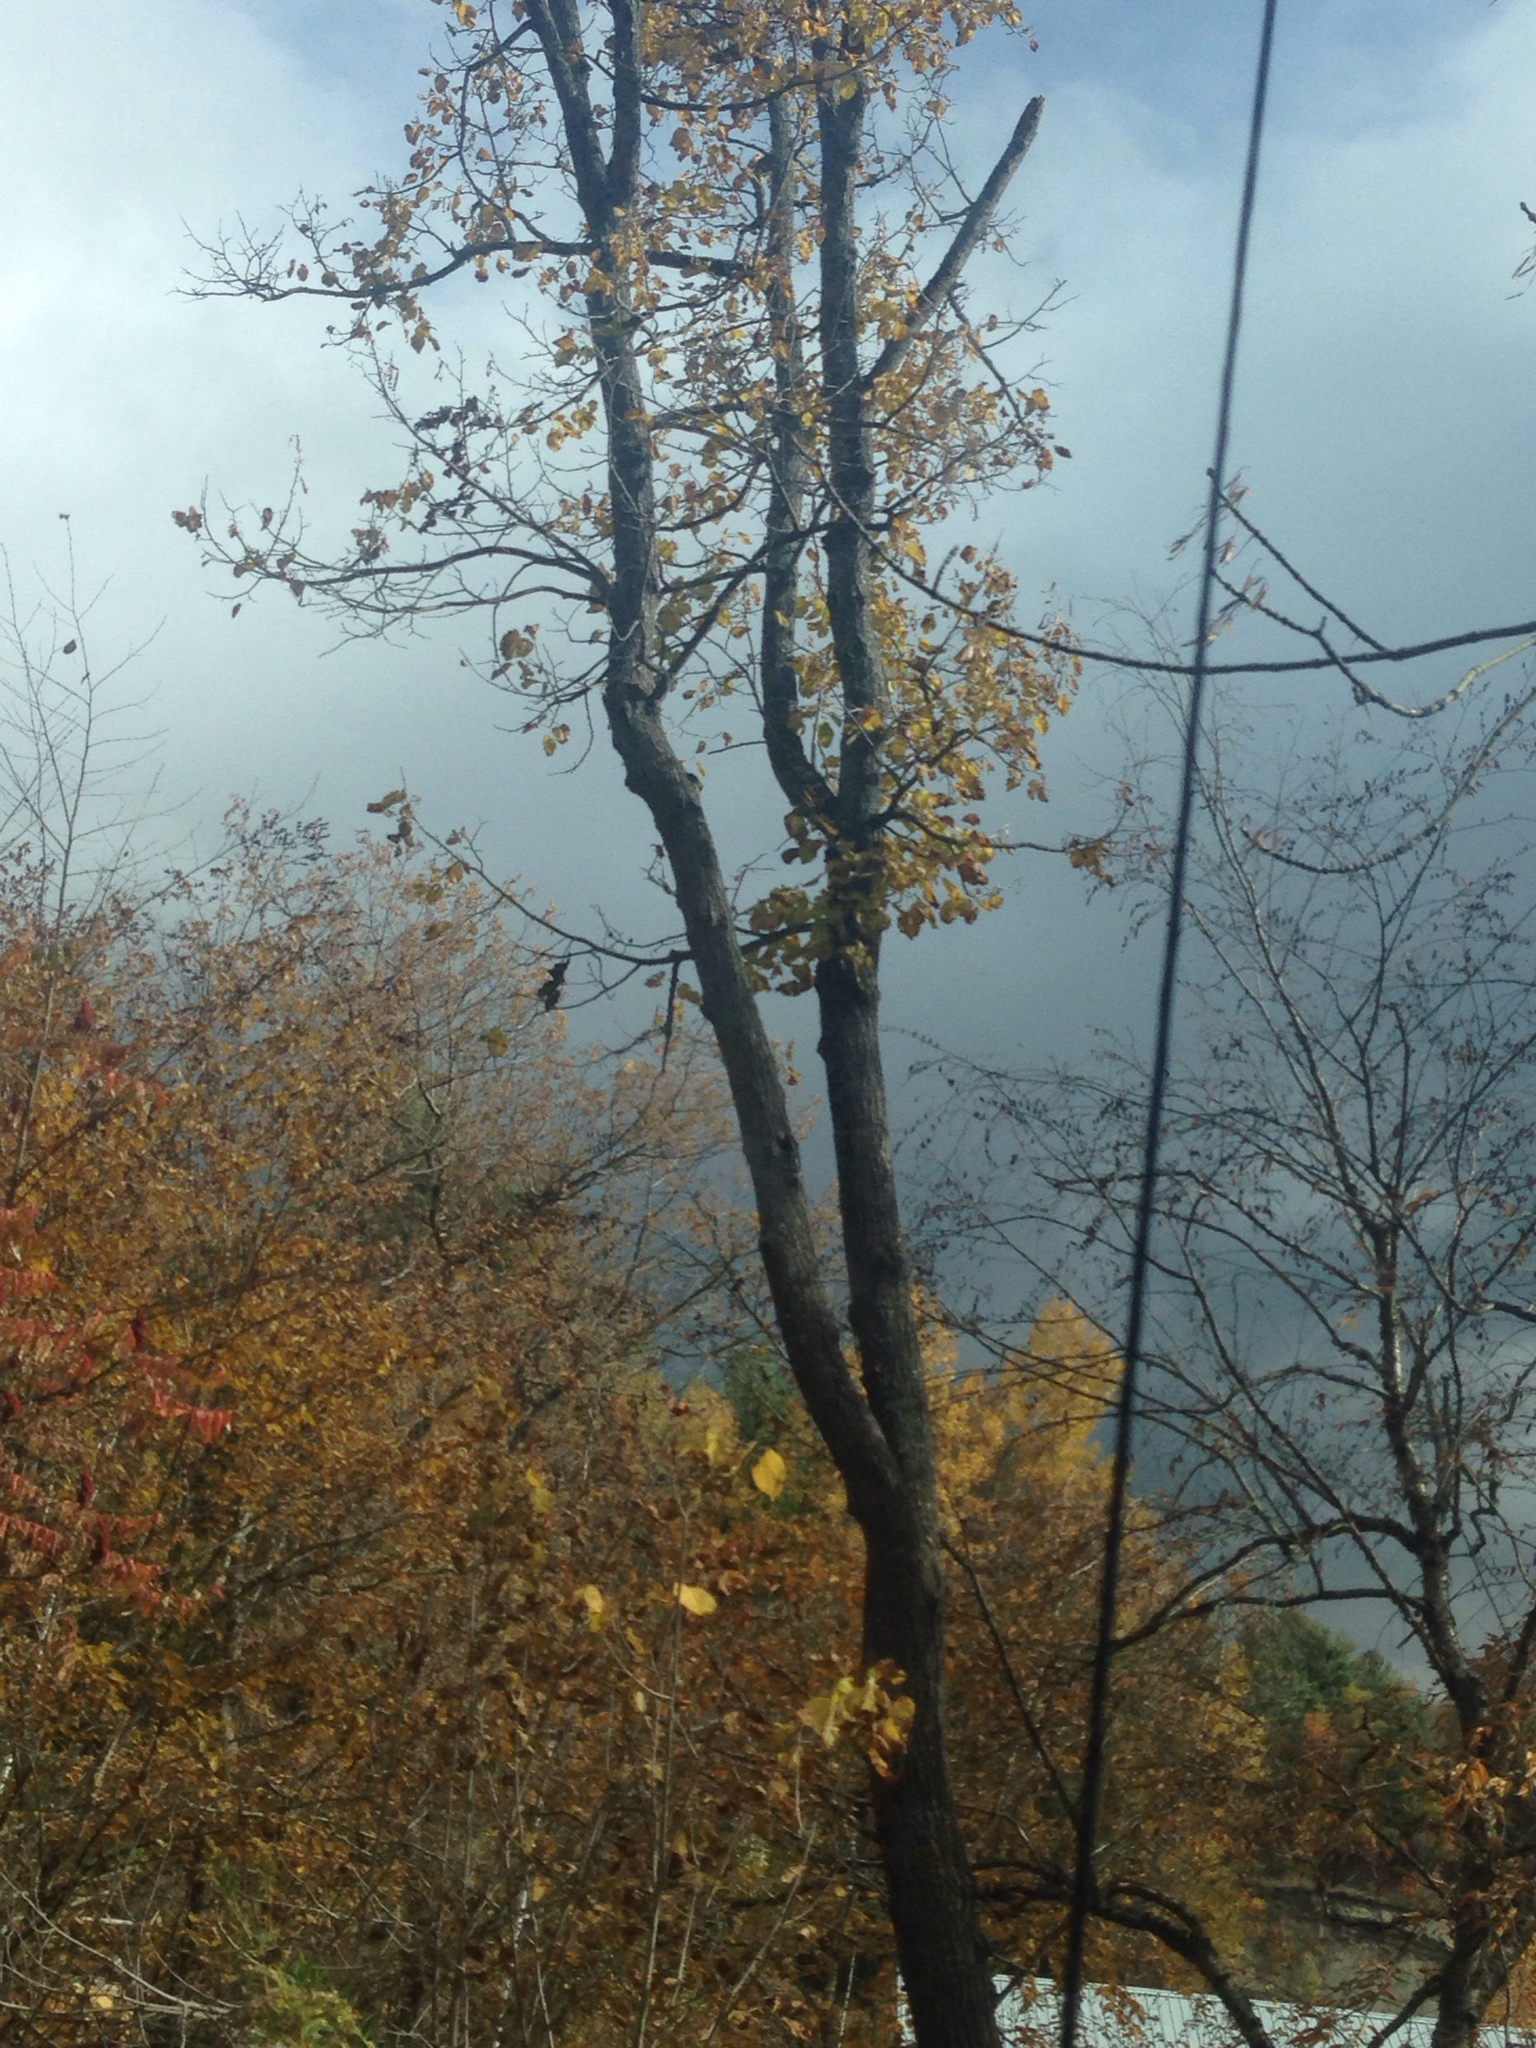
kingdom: Plantae
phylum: Tracheophyta
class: Magnoliopsida
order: Malvales
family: Malvaceae
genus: Tilia
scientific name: Tilia americana
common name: Basswood
